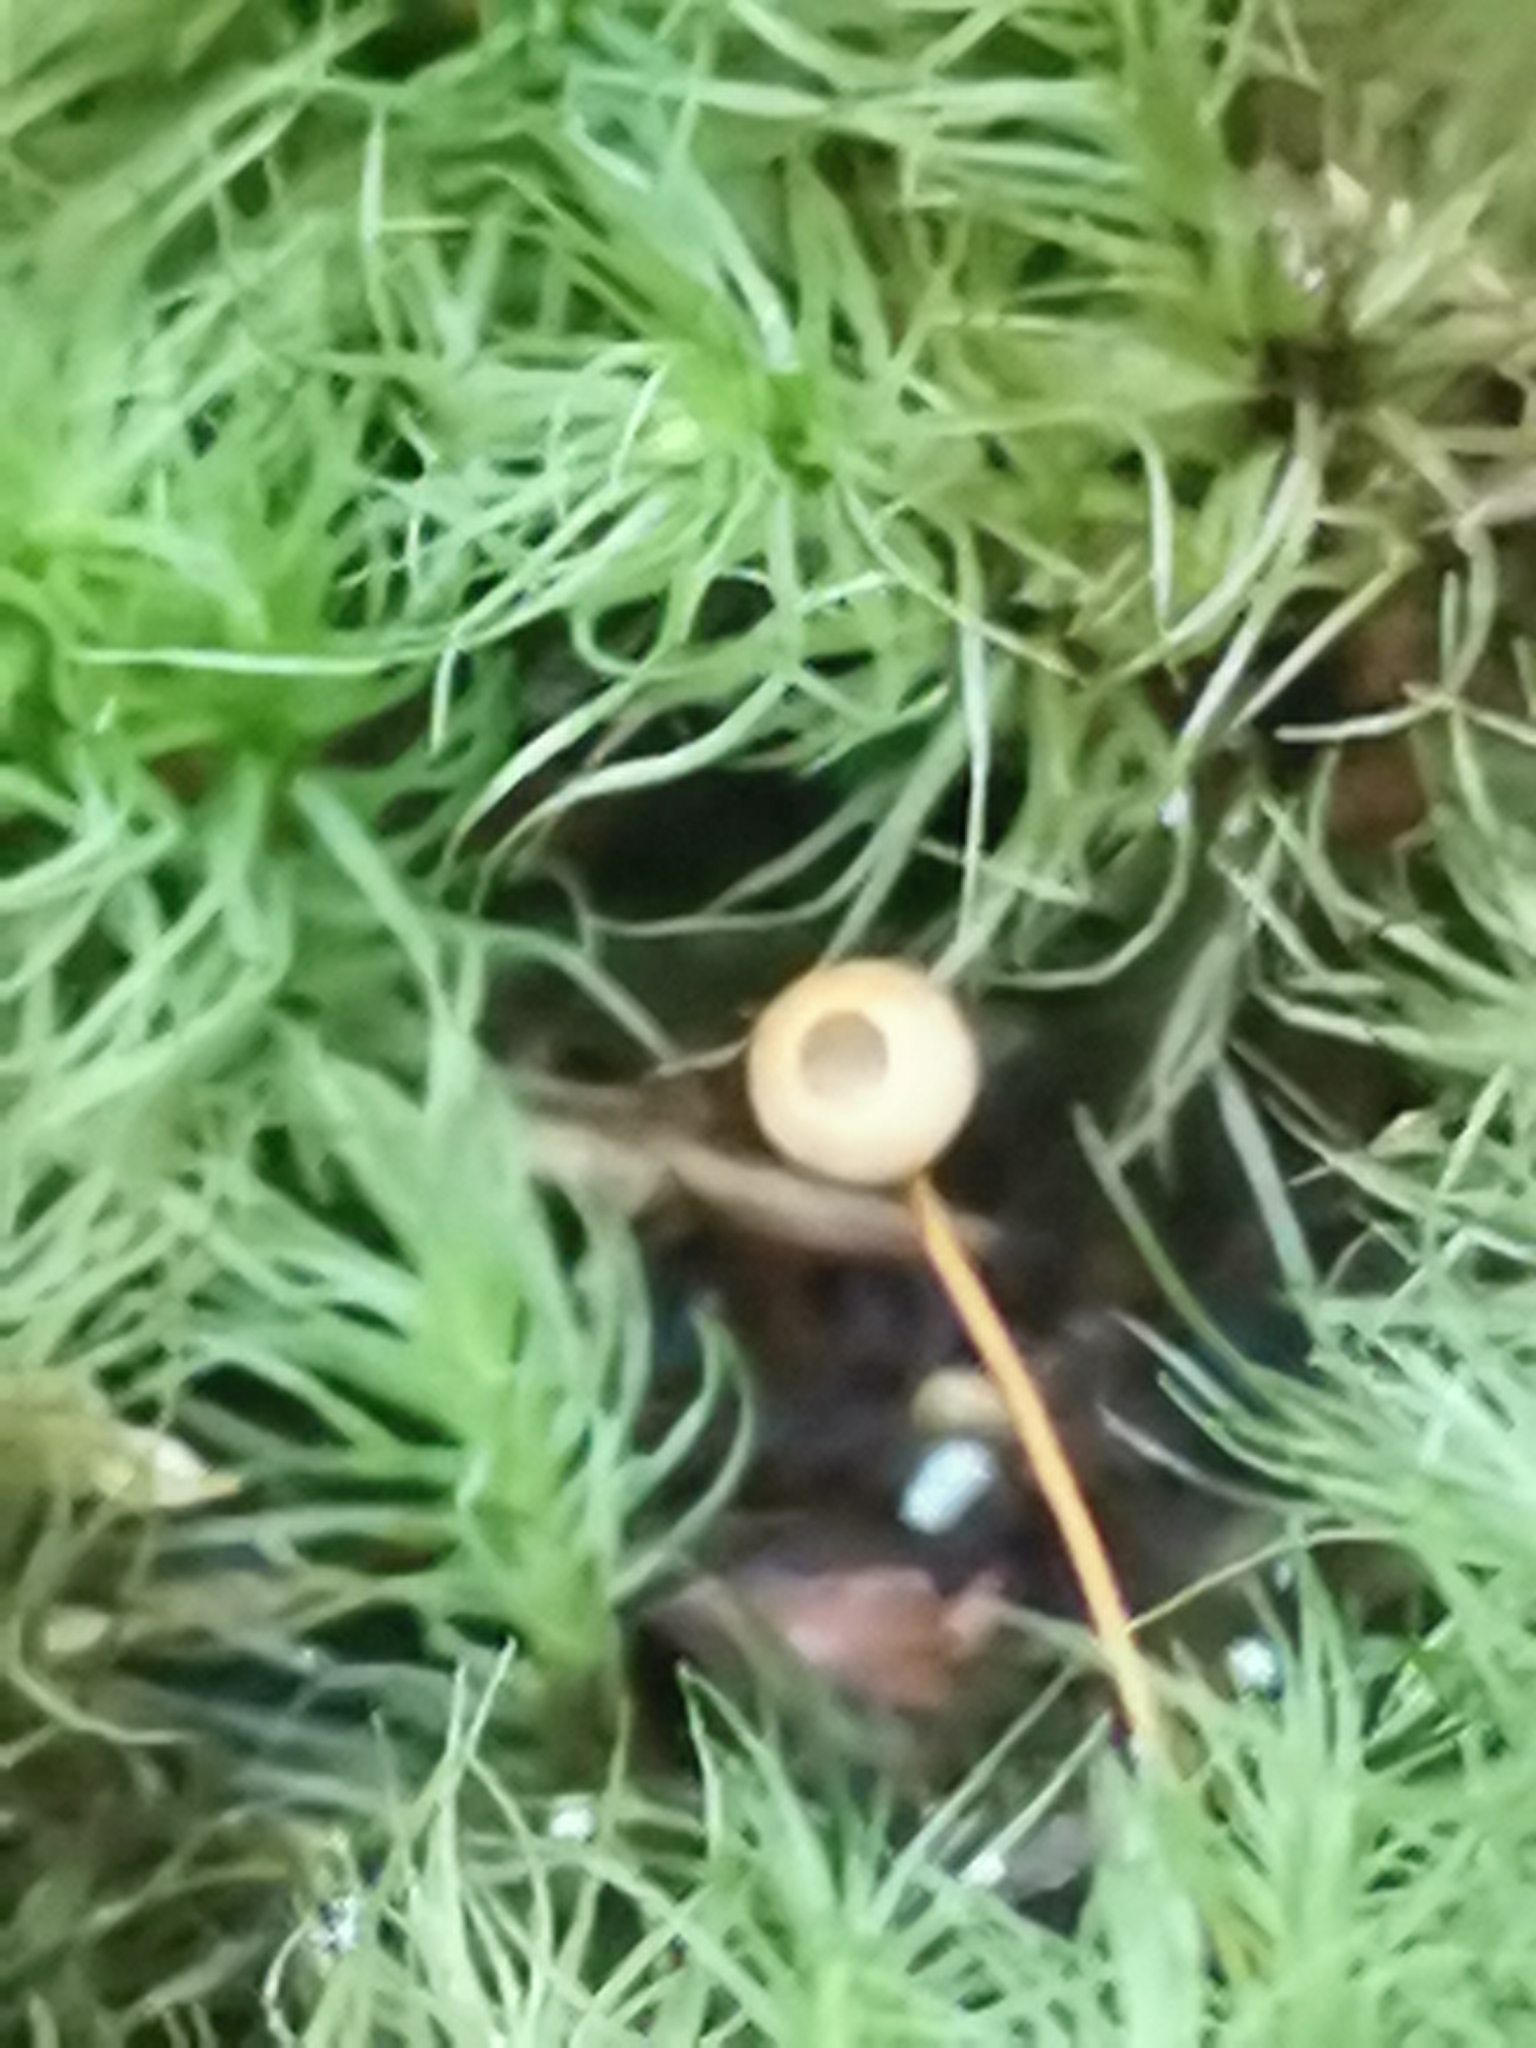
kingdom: Plantae
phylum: Bryophyta
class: Bryopsida
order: Bartramiales
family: Bartramiaceae
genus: Bartramia
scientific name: Bartramia ithyphylla
